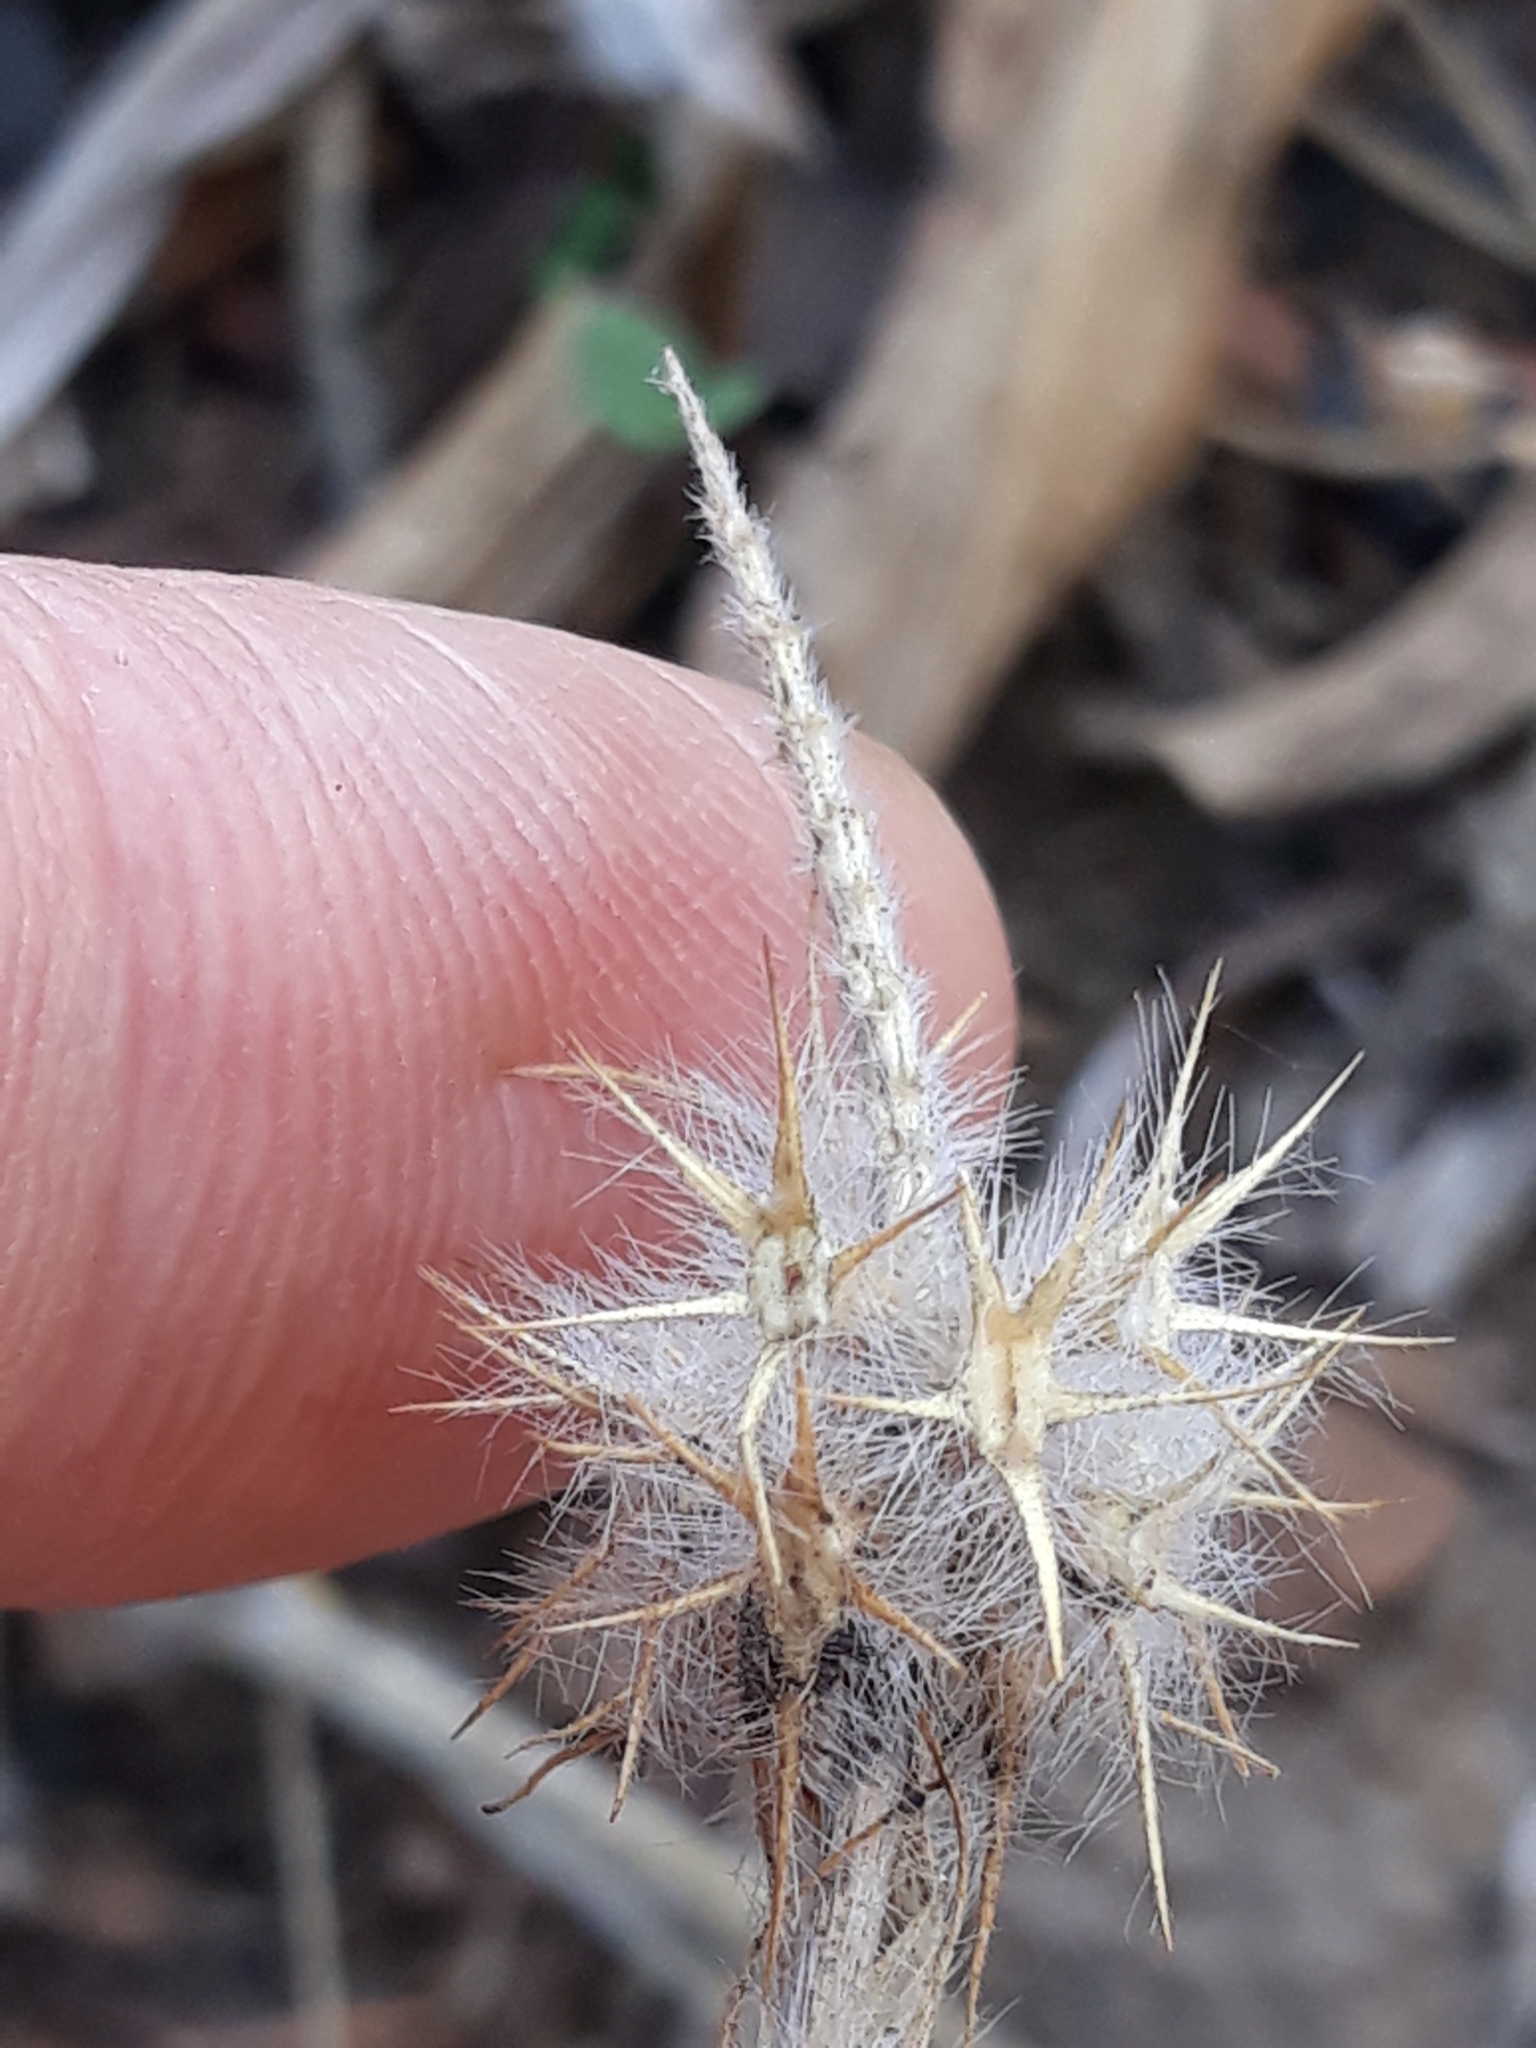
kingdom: Plantae
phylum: Tracheophyta
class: Magnoliopsida
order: Fabales
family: Fabaceae
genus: Trifolium
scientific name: Trifolium angustifolium
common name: Narrow clover
